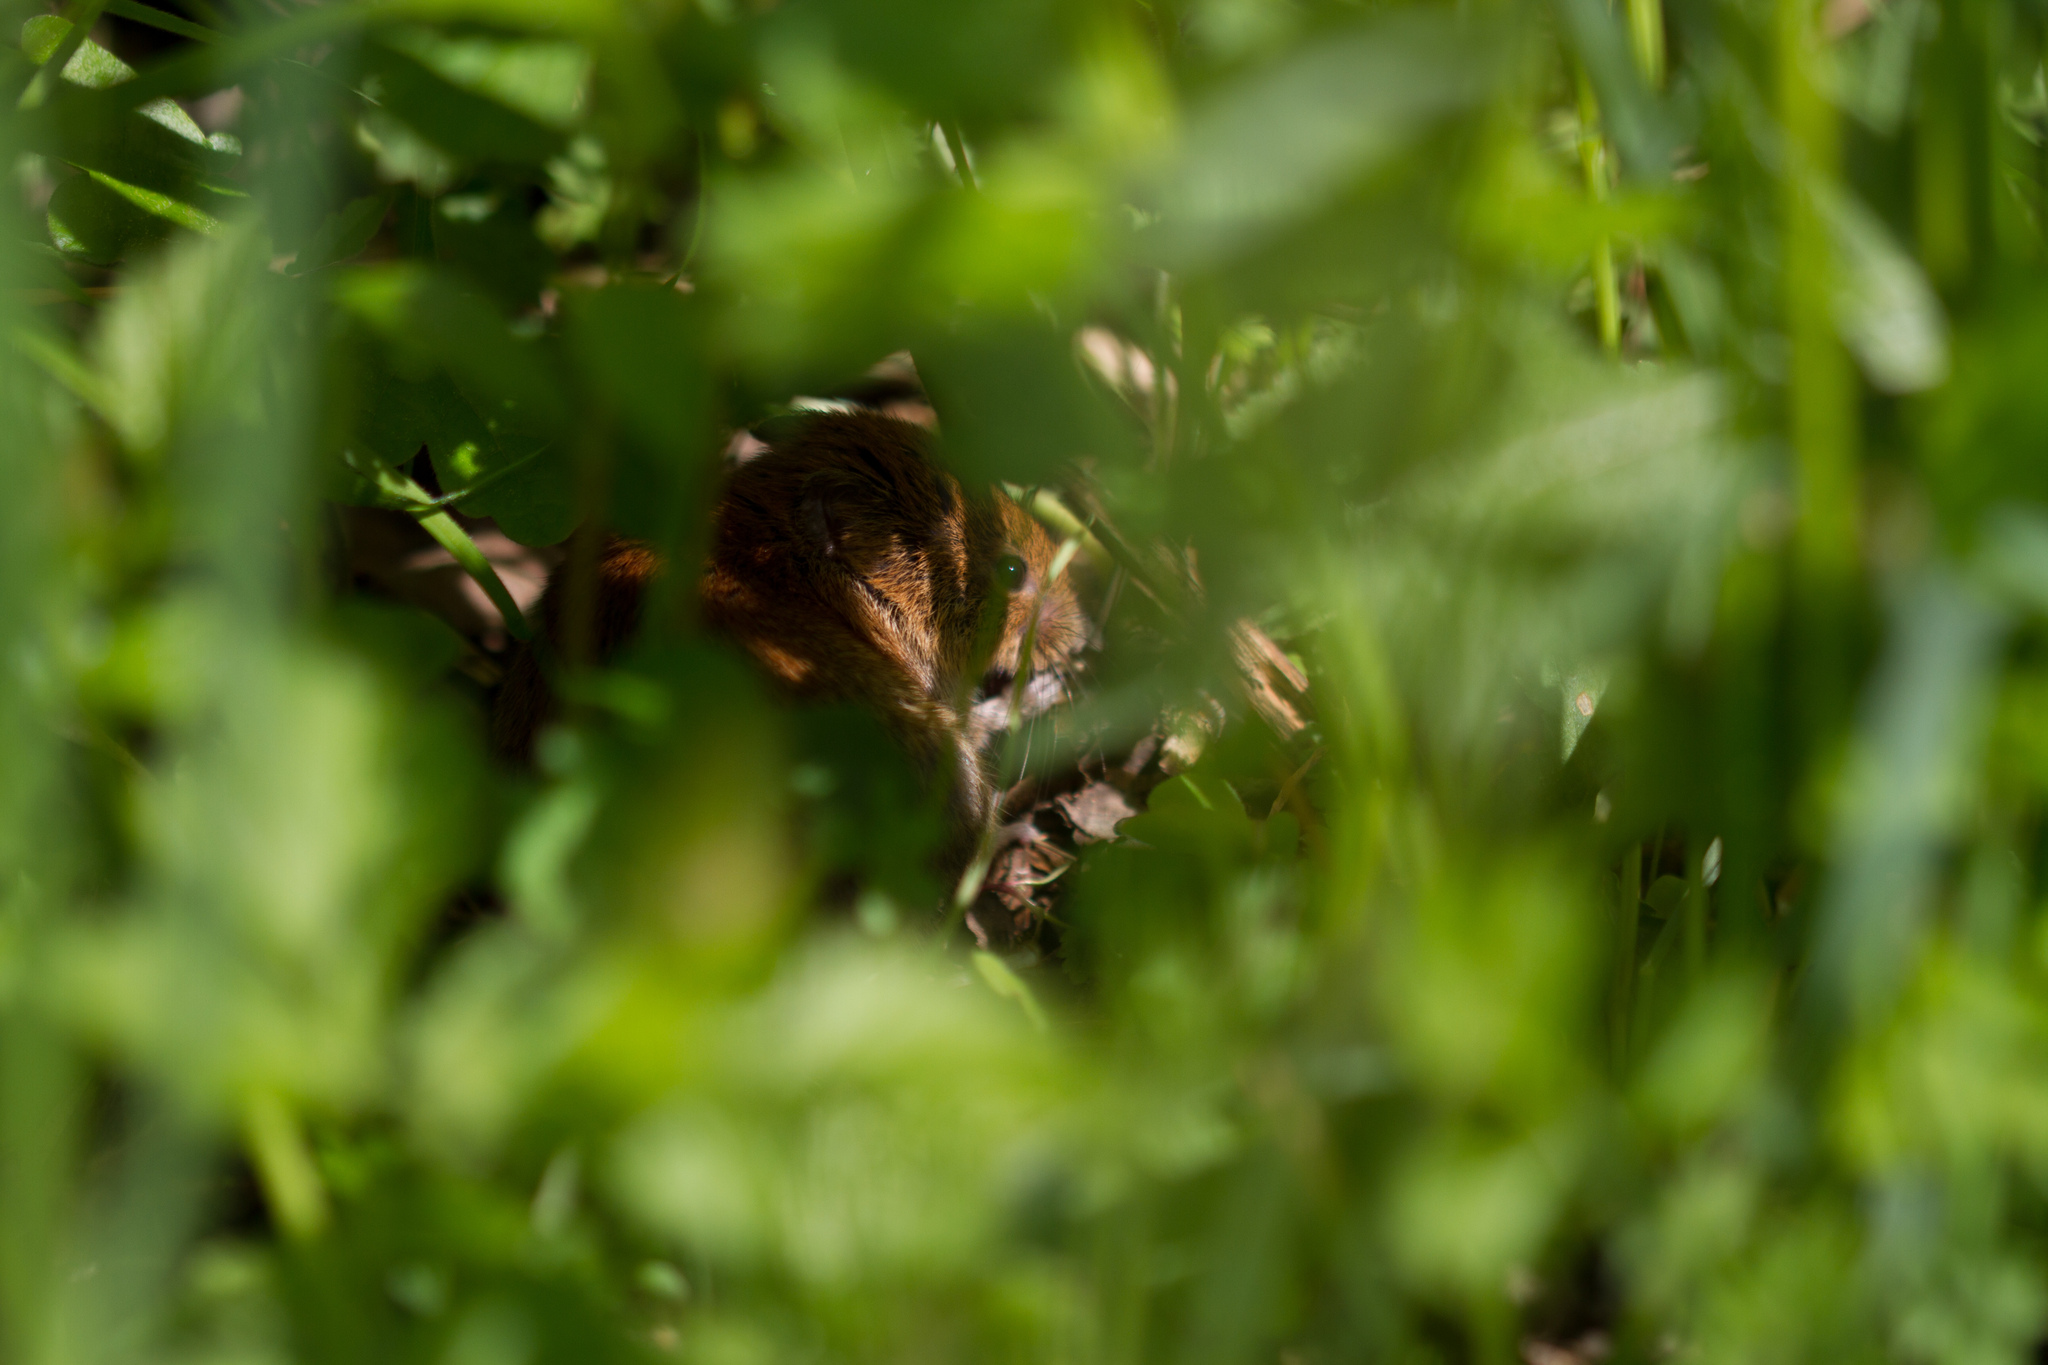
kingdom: Animalia
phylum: Chordata
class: Mammalia
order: Rodentia
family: Cricetidae
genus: Myodes
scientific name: Myodes glareolus
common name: Bank vole
